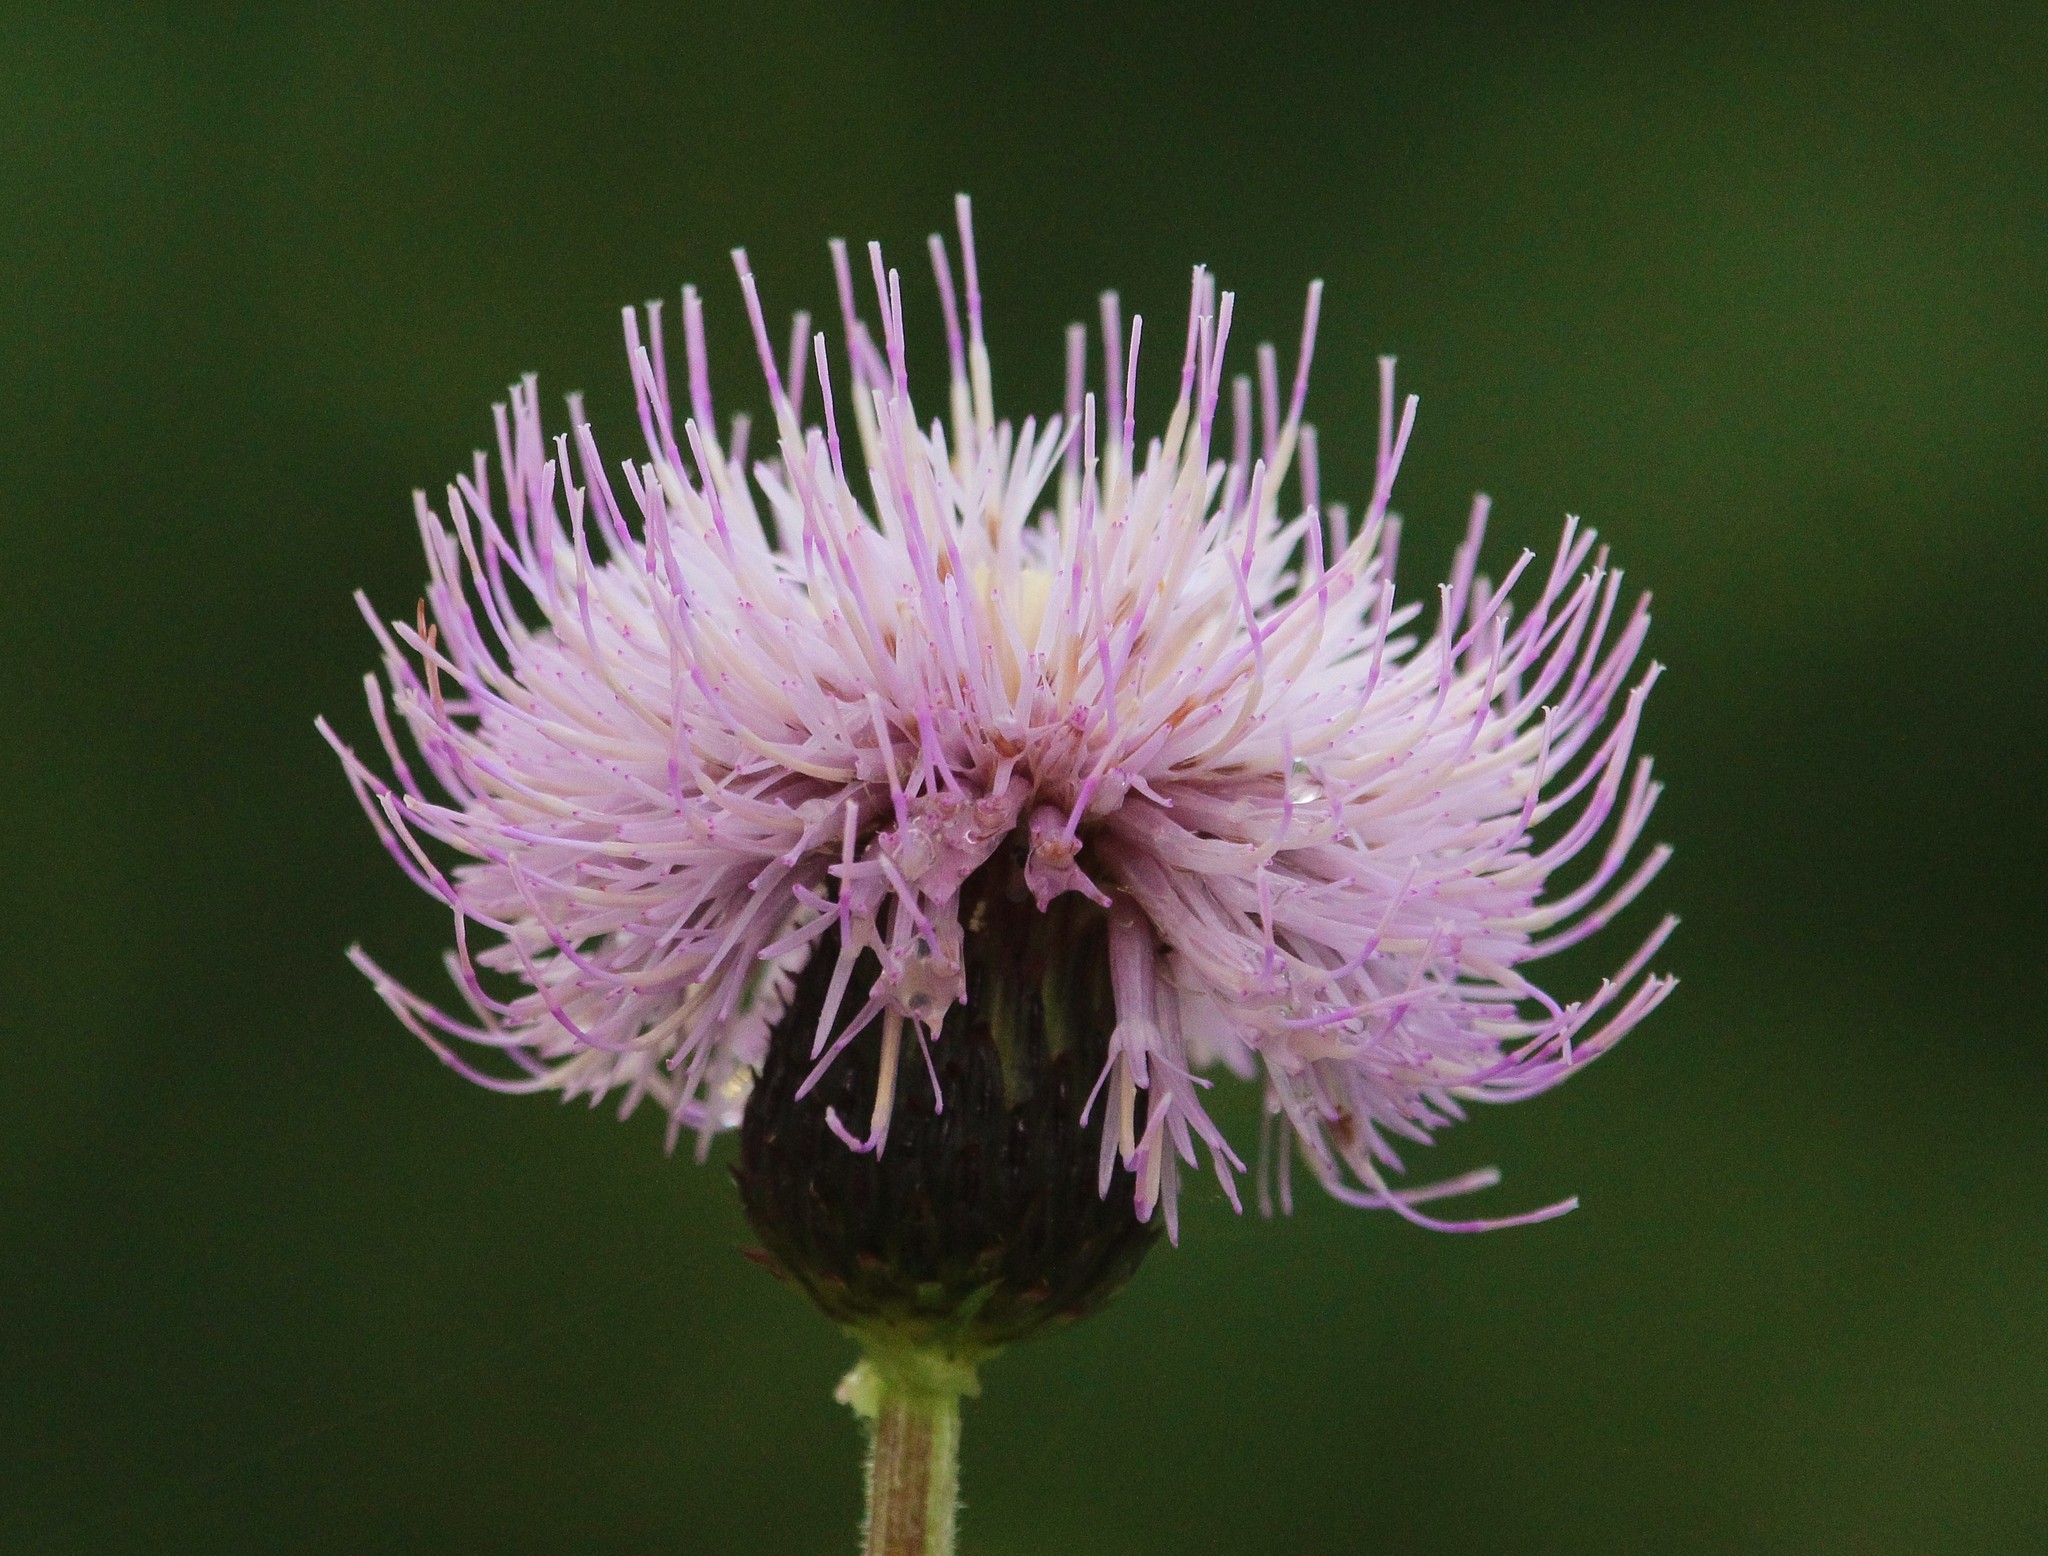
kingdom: Plantae
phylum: Tracheophyta
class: Magnoliopsida
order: Asterales
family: Asteraceae
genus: Cirsium
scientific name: Cirsium heterophyllum
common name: Melancholy thistle
